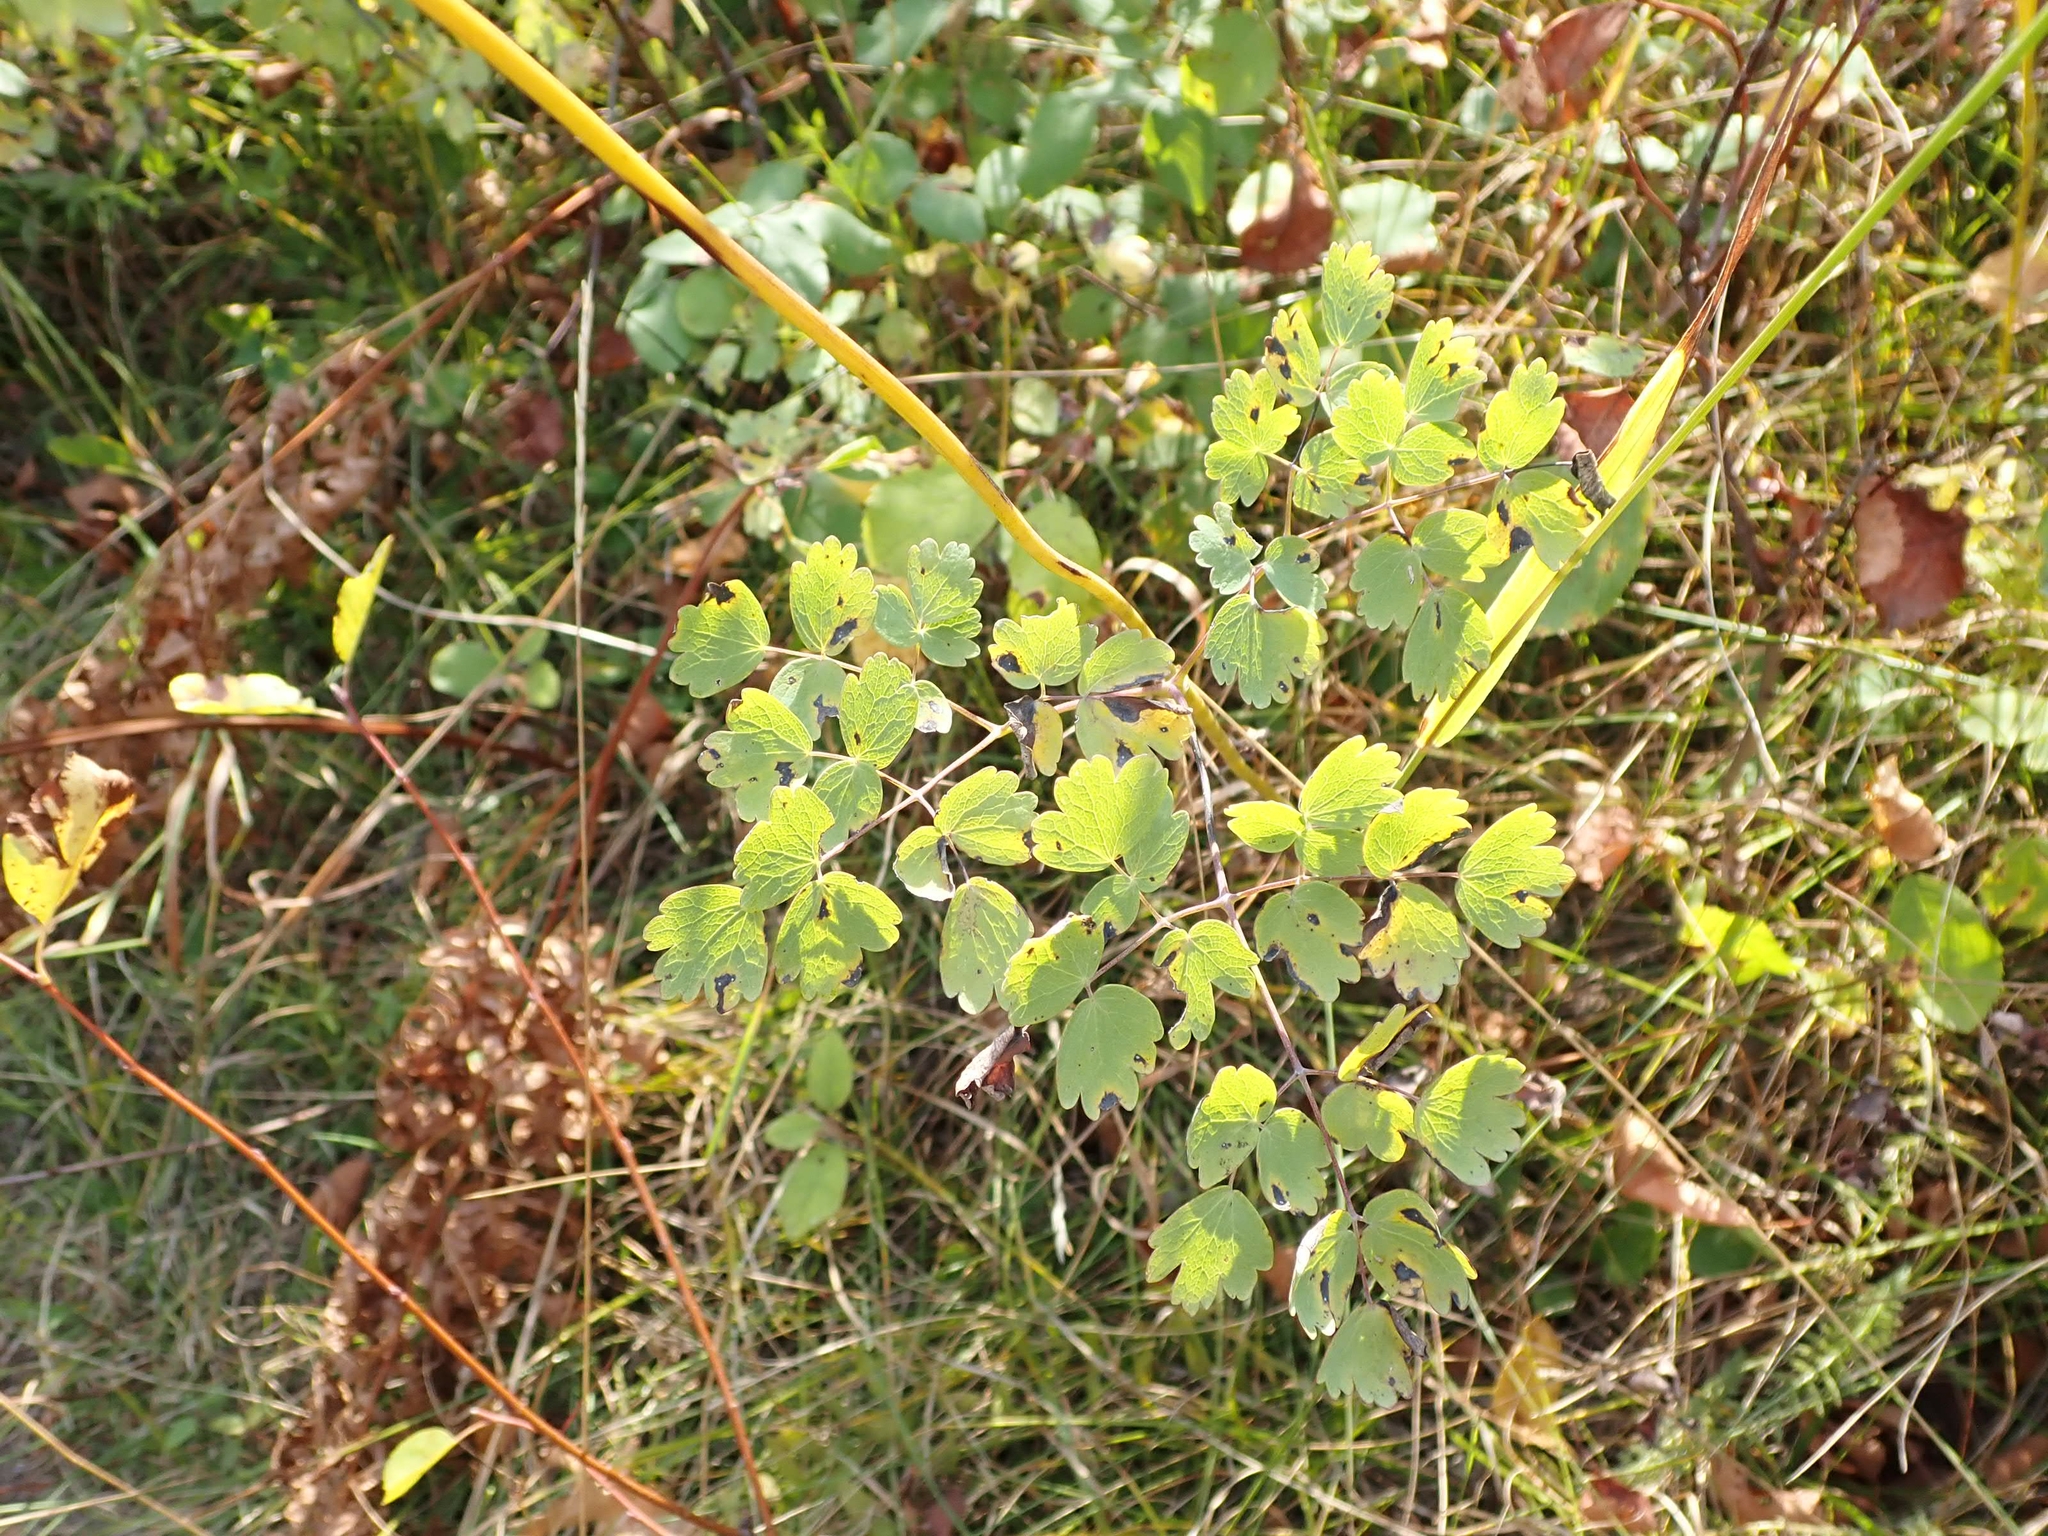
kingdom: Plantae
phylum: Tracheophyta
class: Magnoliopsida
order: Ranunculales
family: Ranunculaceae
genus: Thalictrum
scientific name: Thalictrum venulosum
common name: Early meadow-rue
